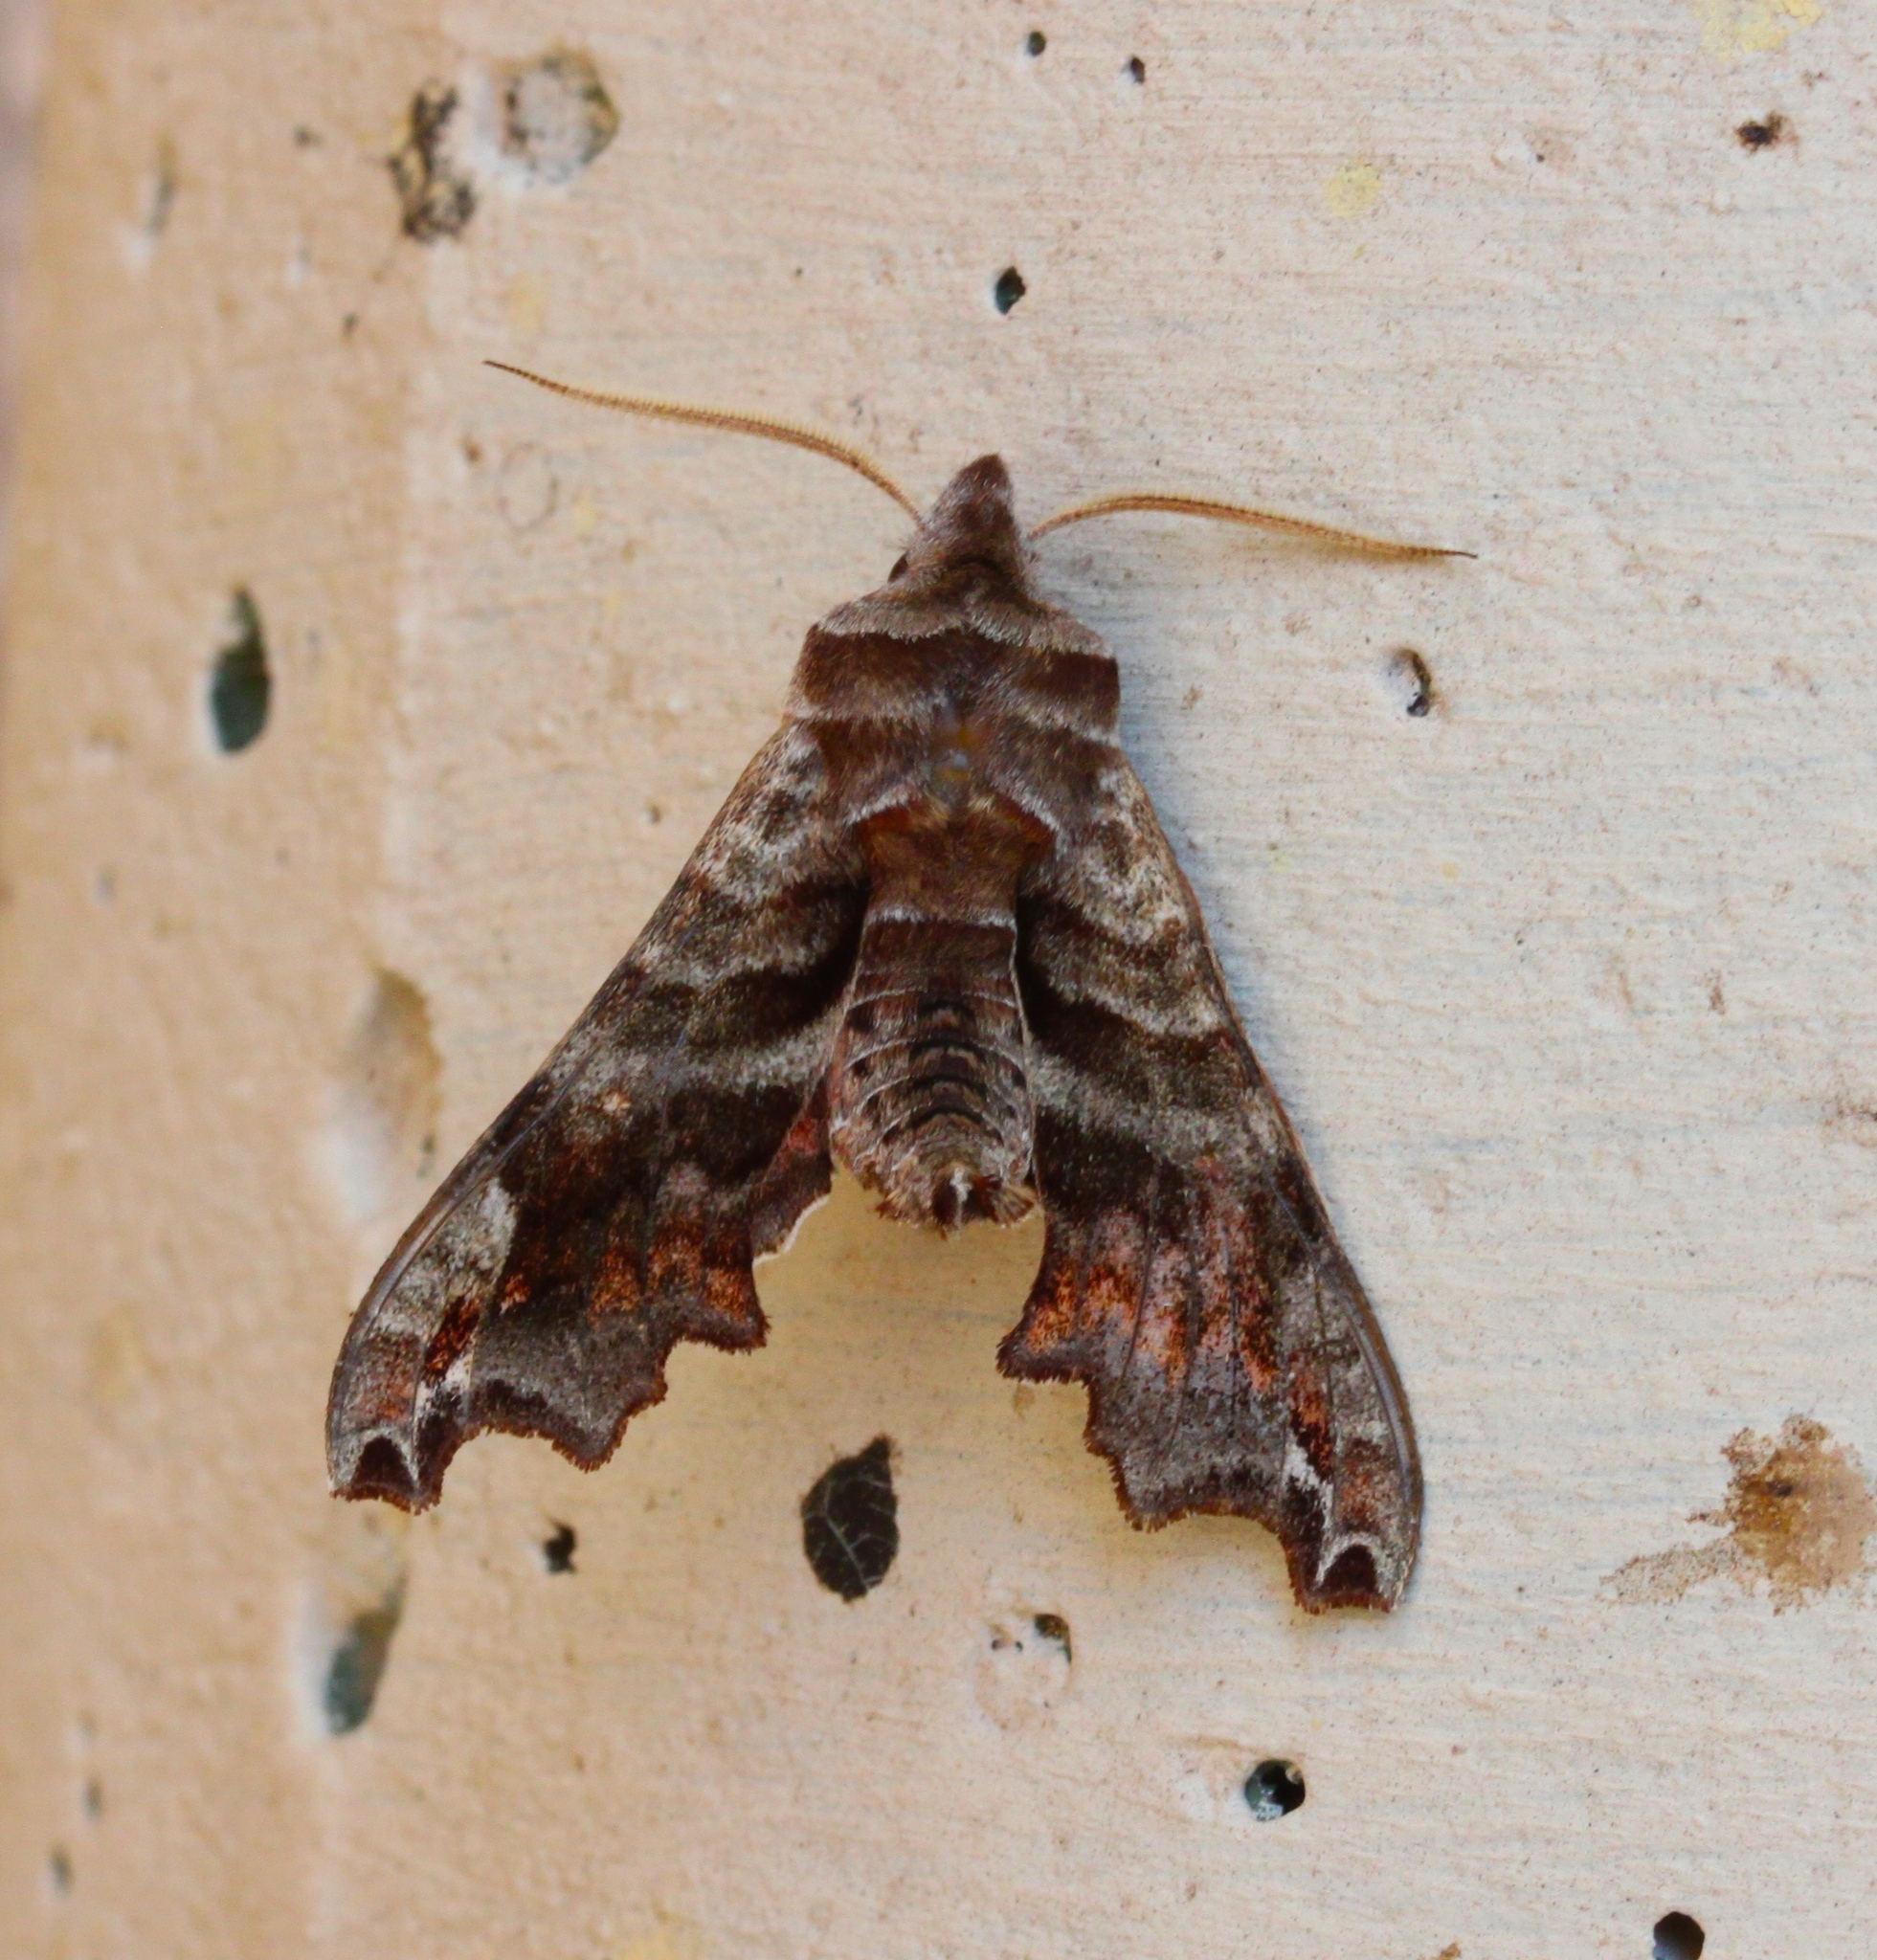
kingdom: Animalia
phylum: Arthropoda
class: Insecta
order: Lepidoptera
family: Sphingidae
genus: Deidamia
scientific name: Deidamia inscriptum
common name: Lettered sphinx
